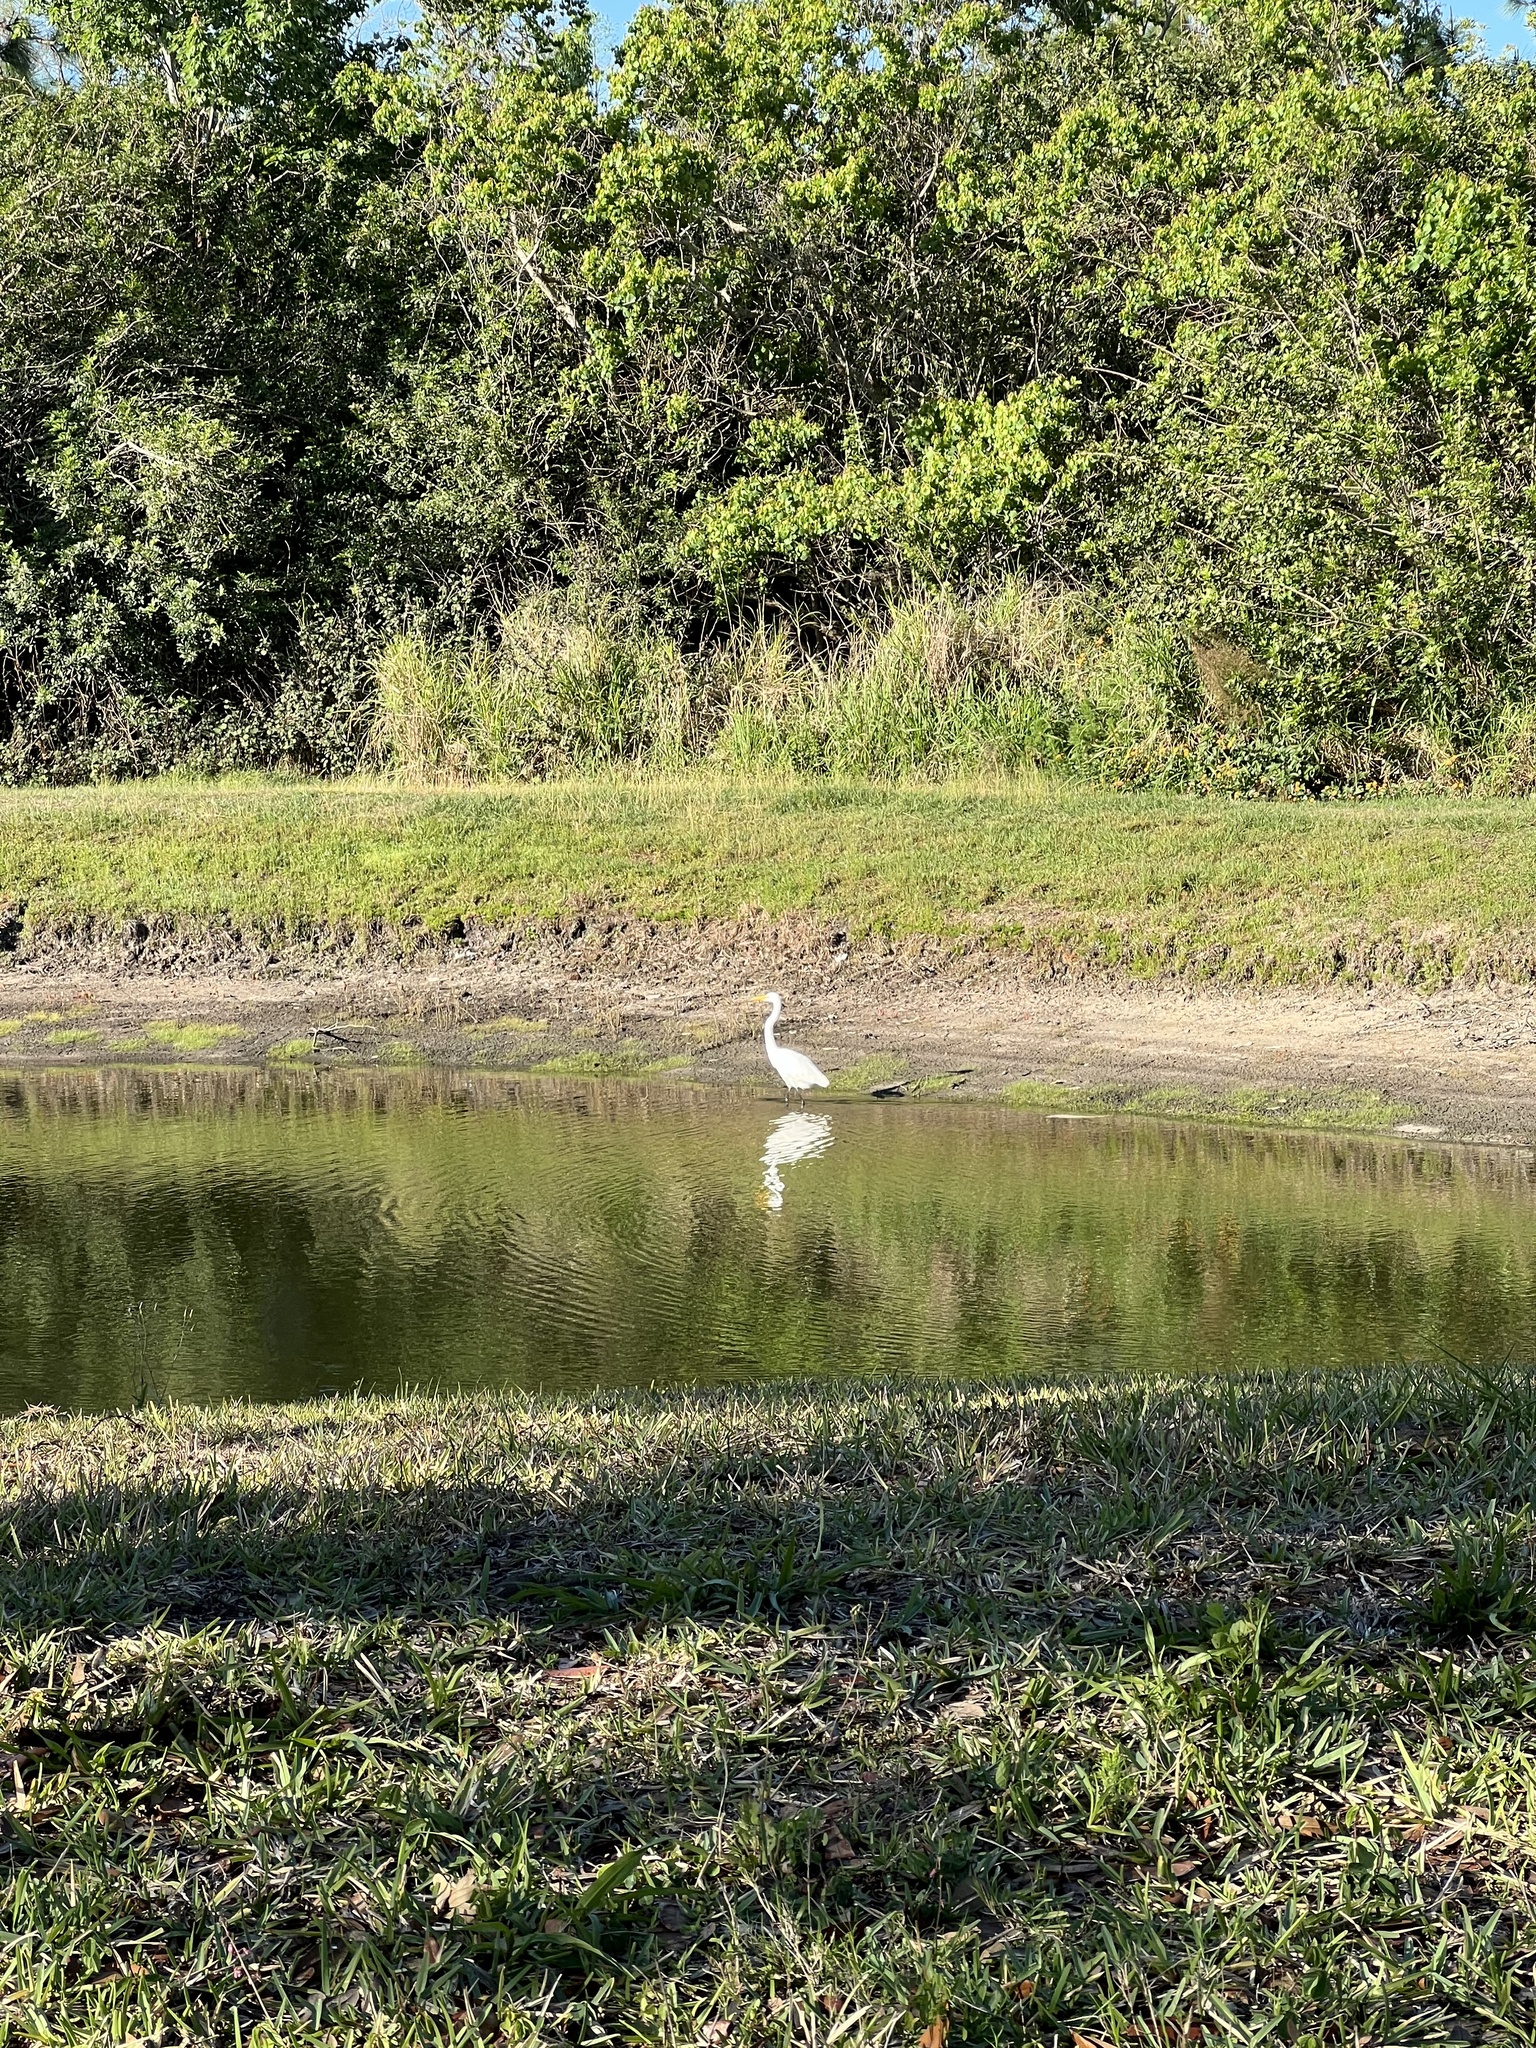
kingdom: Animalia
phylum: Chordata
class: Aves
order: Pelecaniformes
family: Ardeidae
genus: Ardea
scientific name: Ardea alba
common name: Great egret
